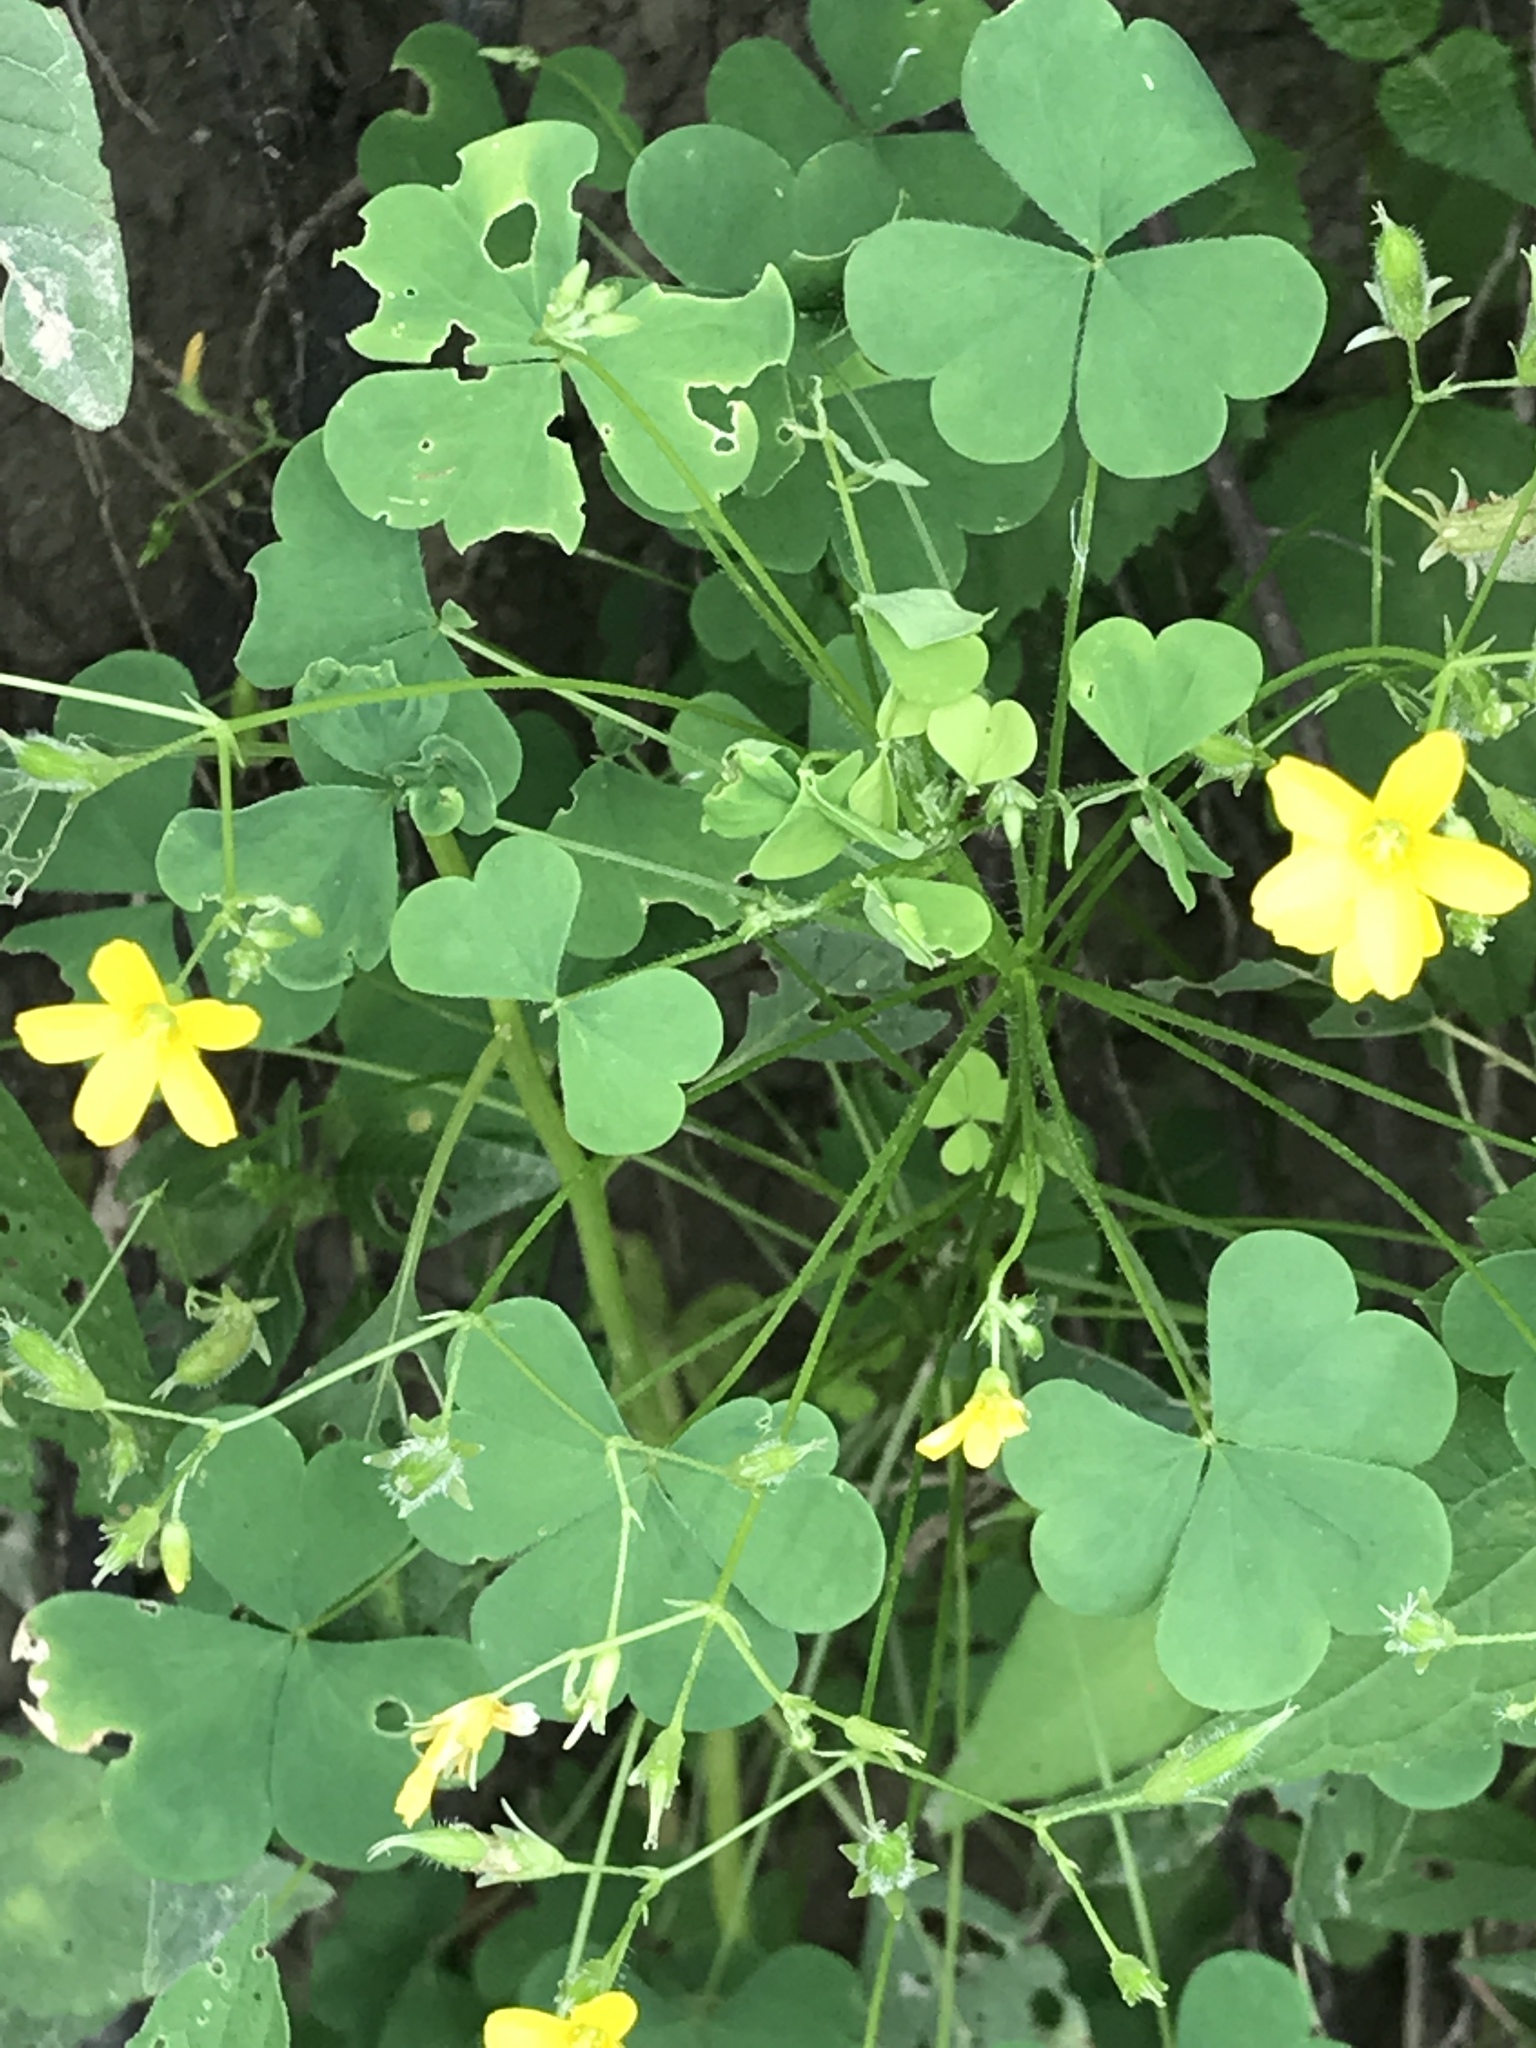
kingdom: Plantae
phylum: Tracheophyta
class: Magnoliopsida
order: Oxalidales
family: Oxalidaceae
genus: Oxalis
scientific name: Oxalis stricta
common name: Upright yellow-sorrel
